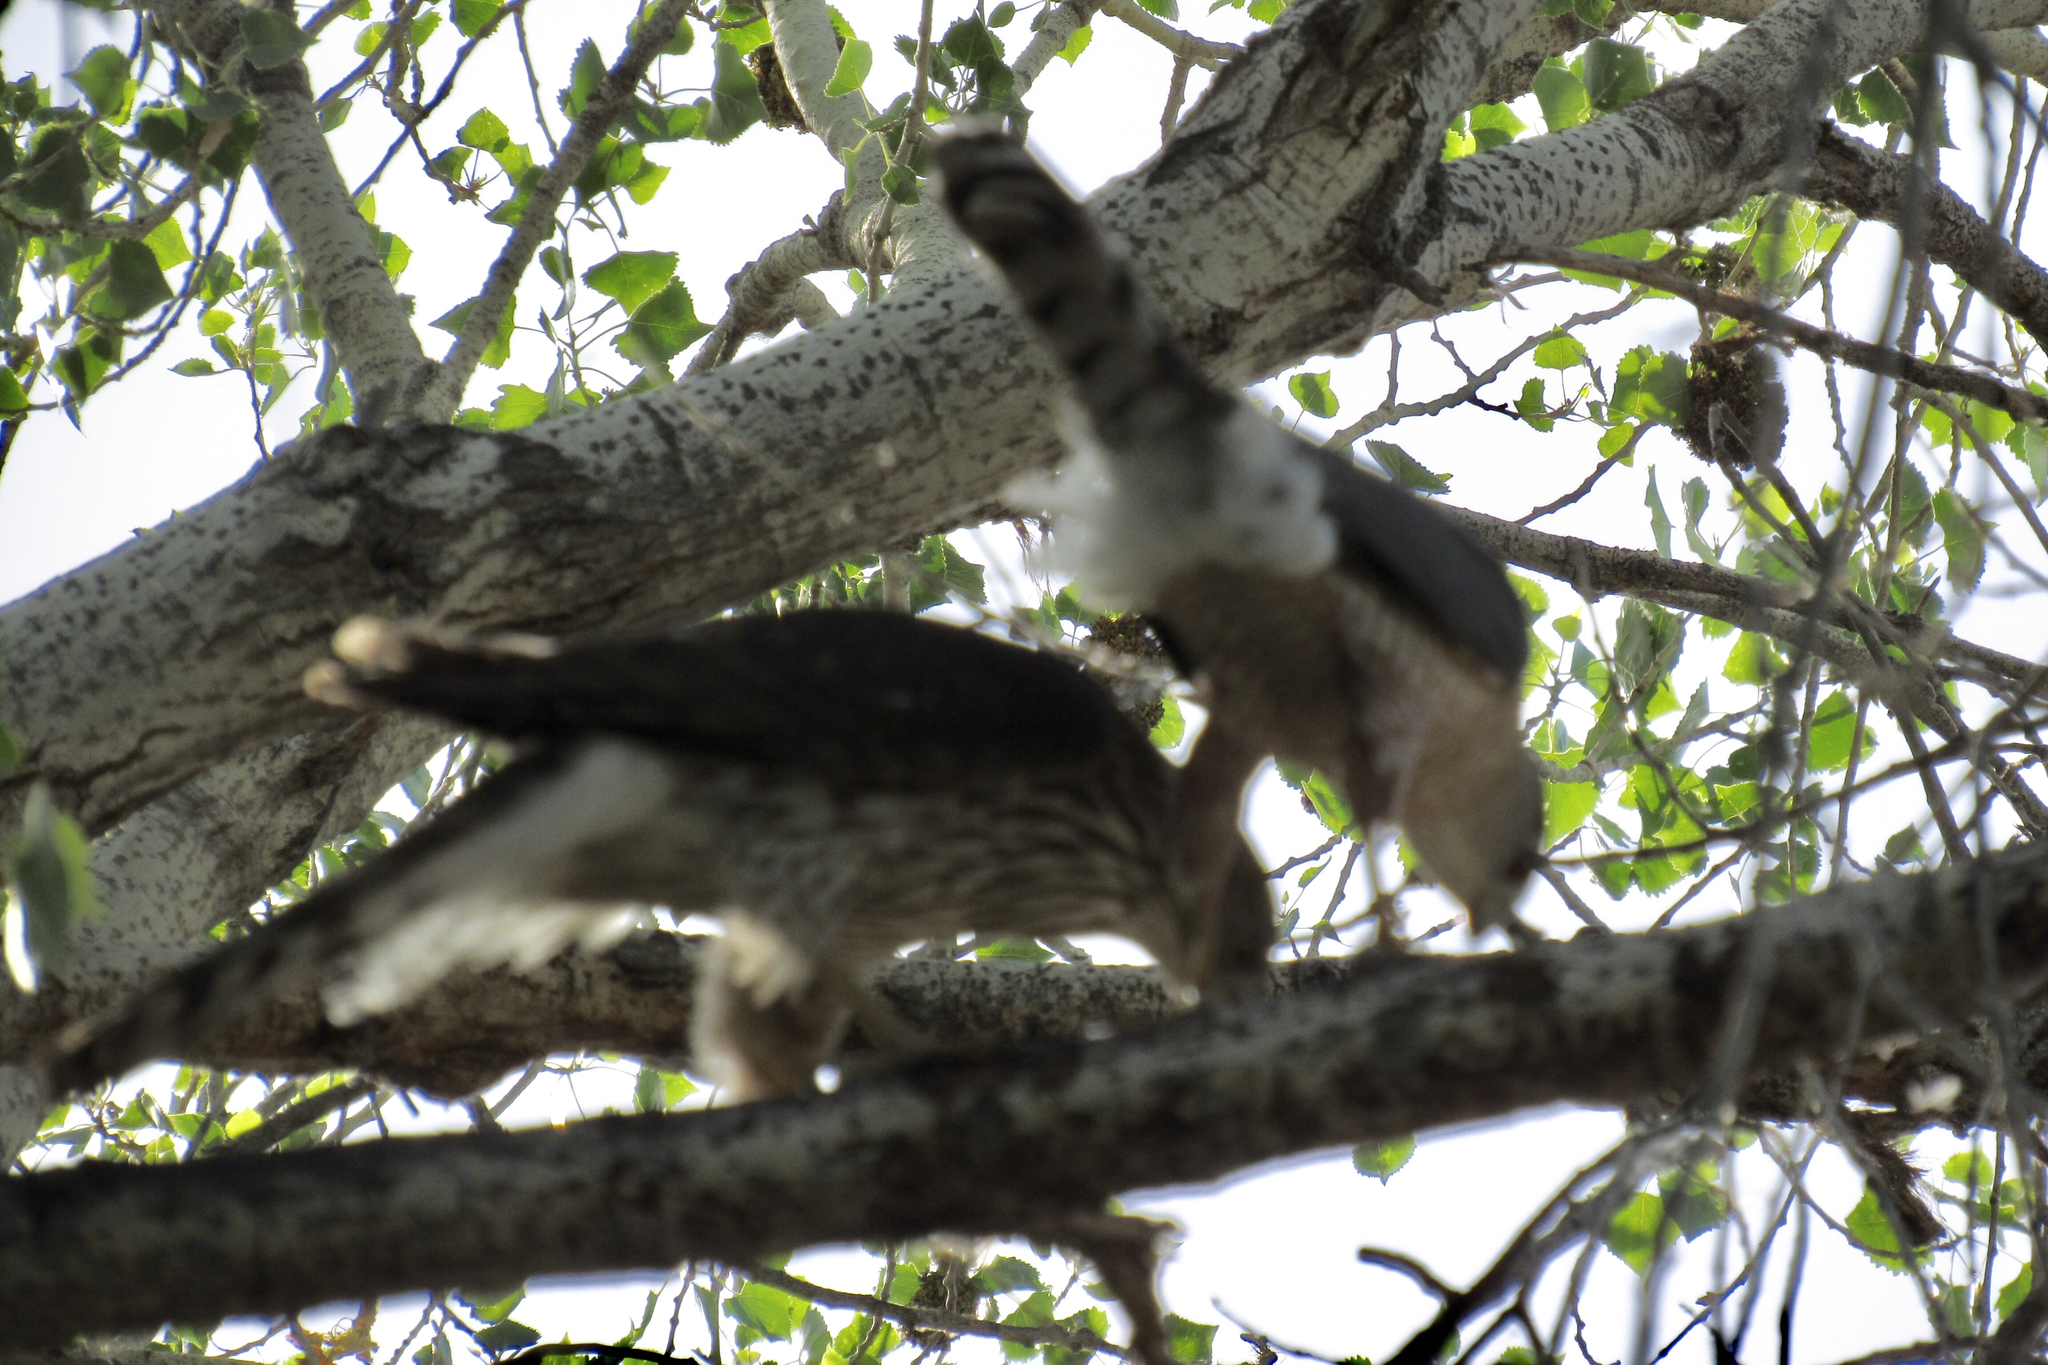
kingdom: Animalia
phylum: Chordata
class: Aves
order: Accipitriformes
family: Accipitridae
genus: Accipiter
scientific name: Accipiter cooperii
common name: Cooper's hawk
